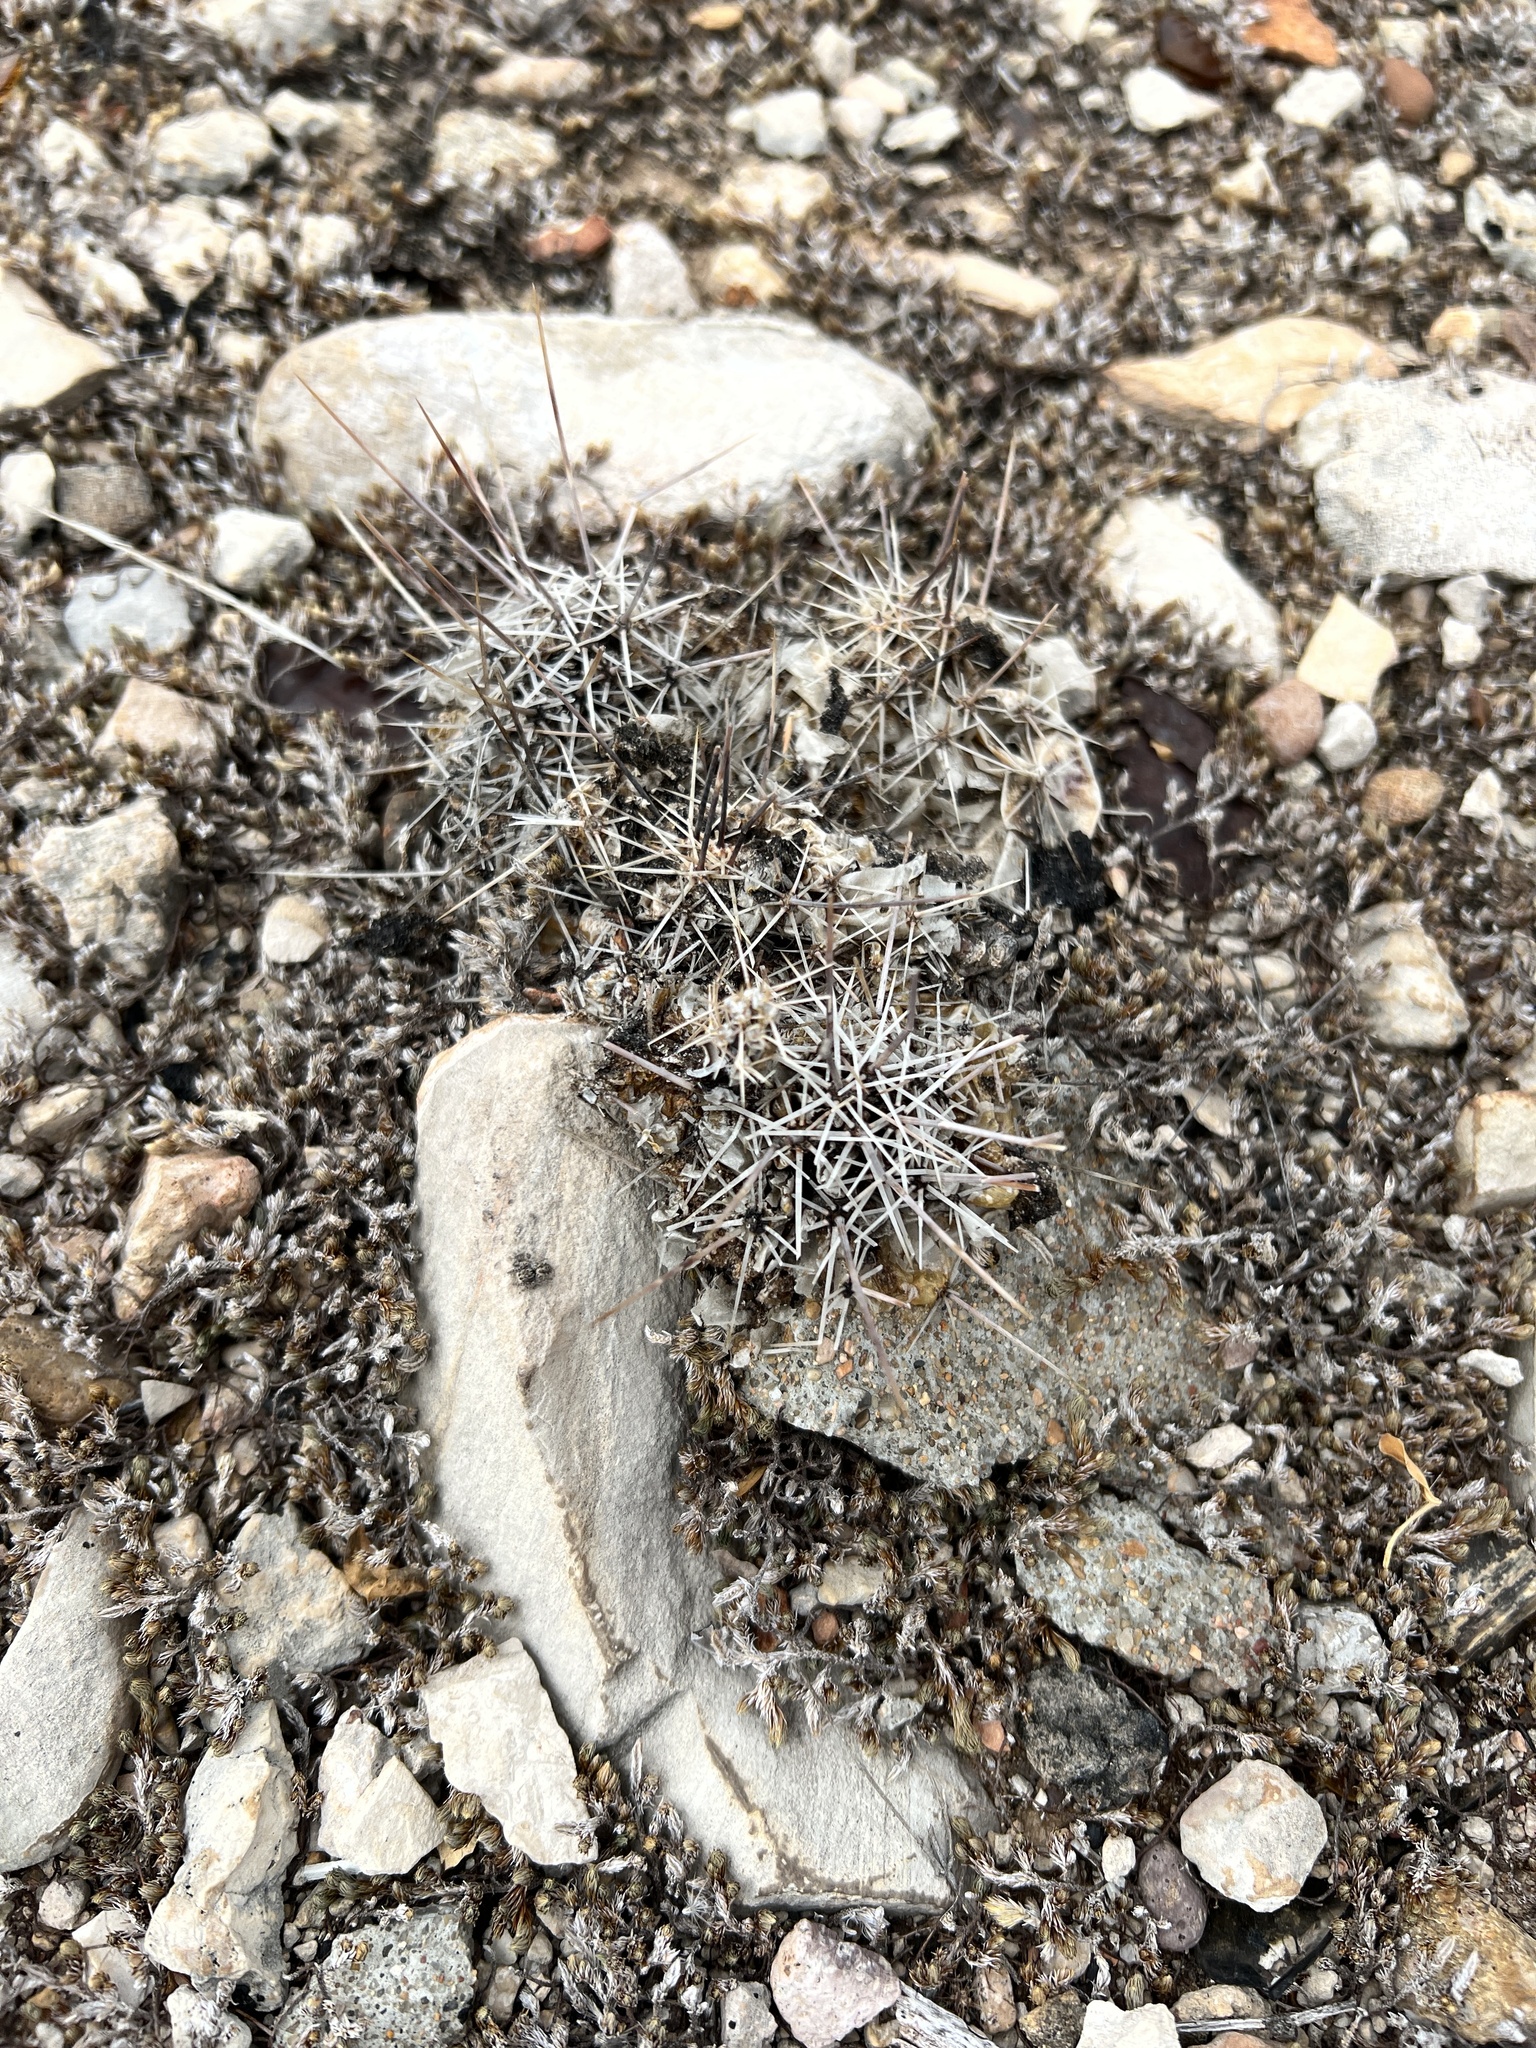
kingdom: Plantae
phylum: Tracheophyta
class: Magnoliopsida
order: Caryophyllales
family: Cactaceae
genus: Echinocereus
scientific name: Echinocereus enneacanthus
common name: Pitaya
